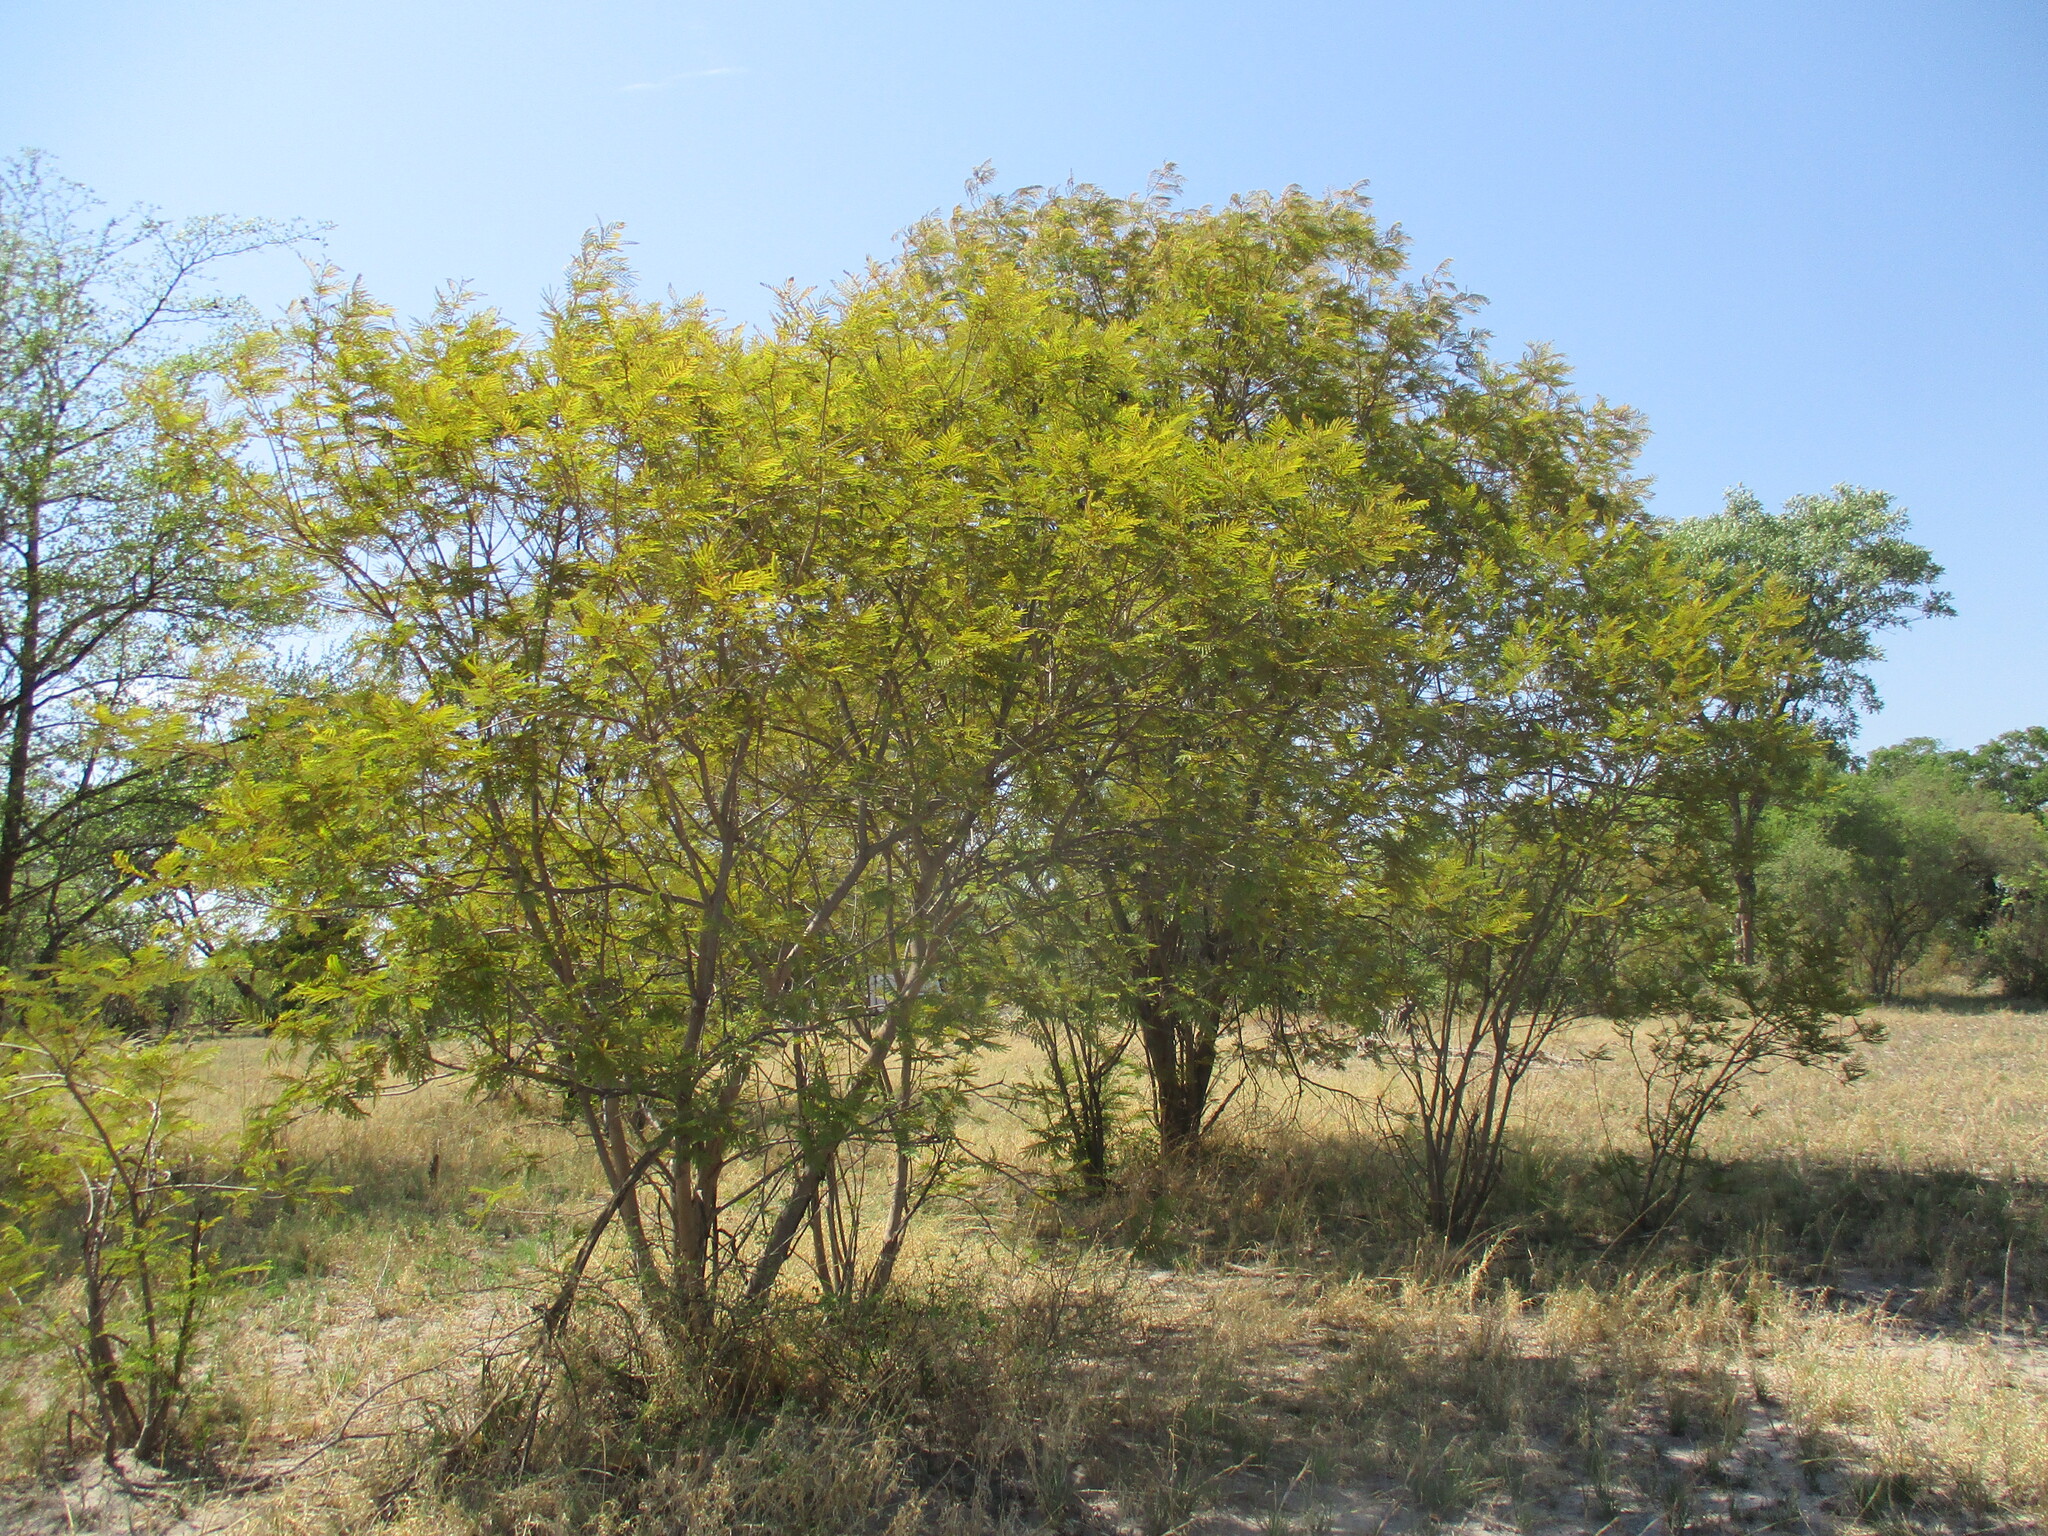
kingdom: Plantae
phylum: Tracheophyta
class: Magnoliopsida
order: Fabales
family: Fabaceae
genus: Peltophorum
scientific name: Peltophorum africanum
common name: African black wattle
